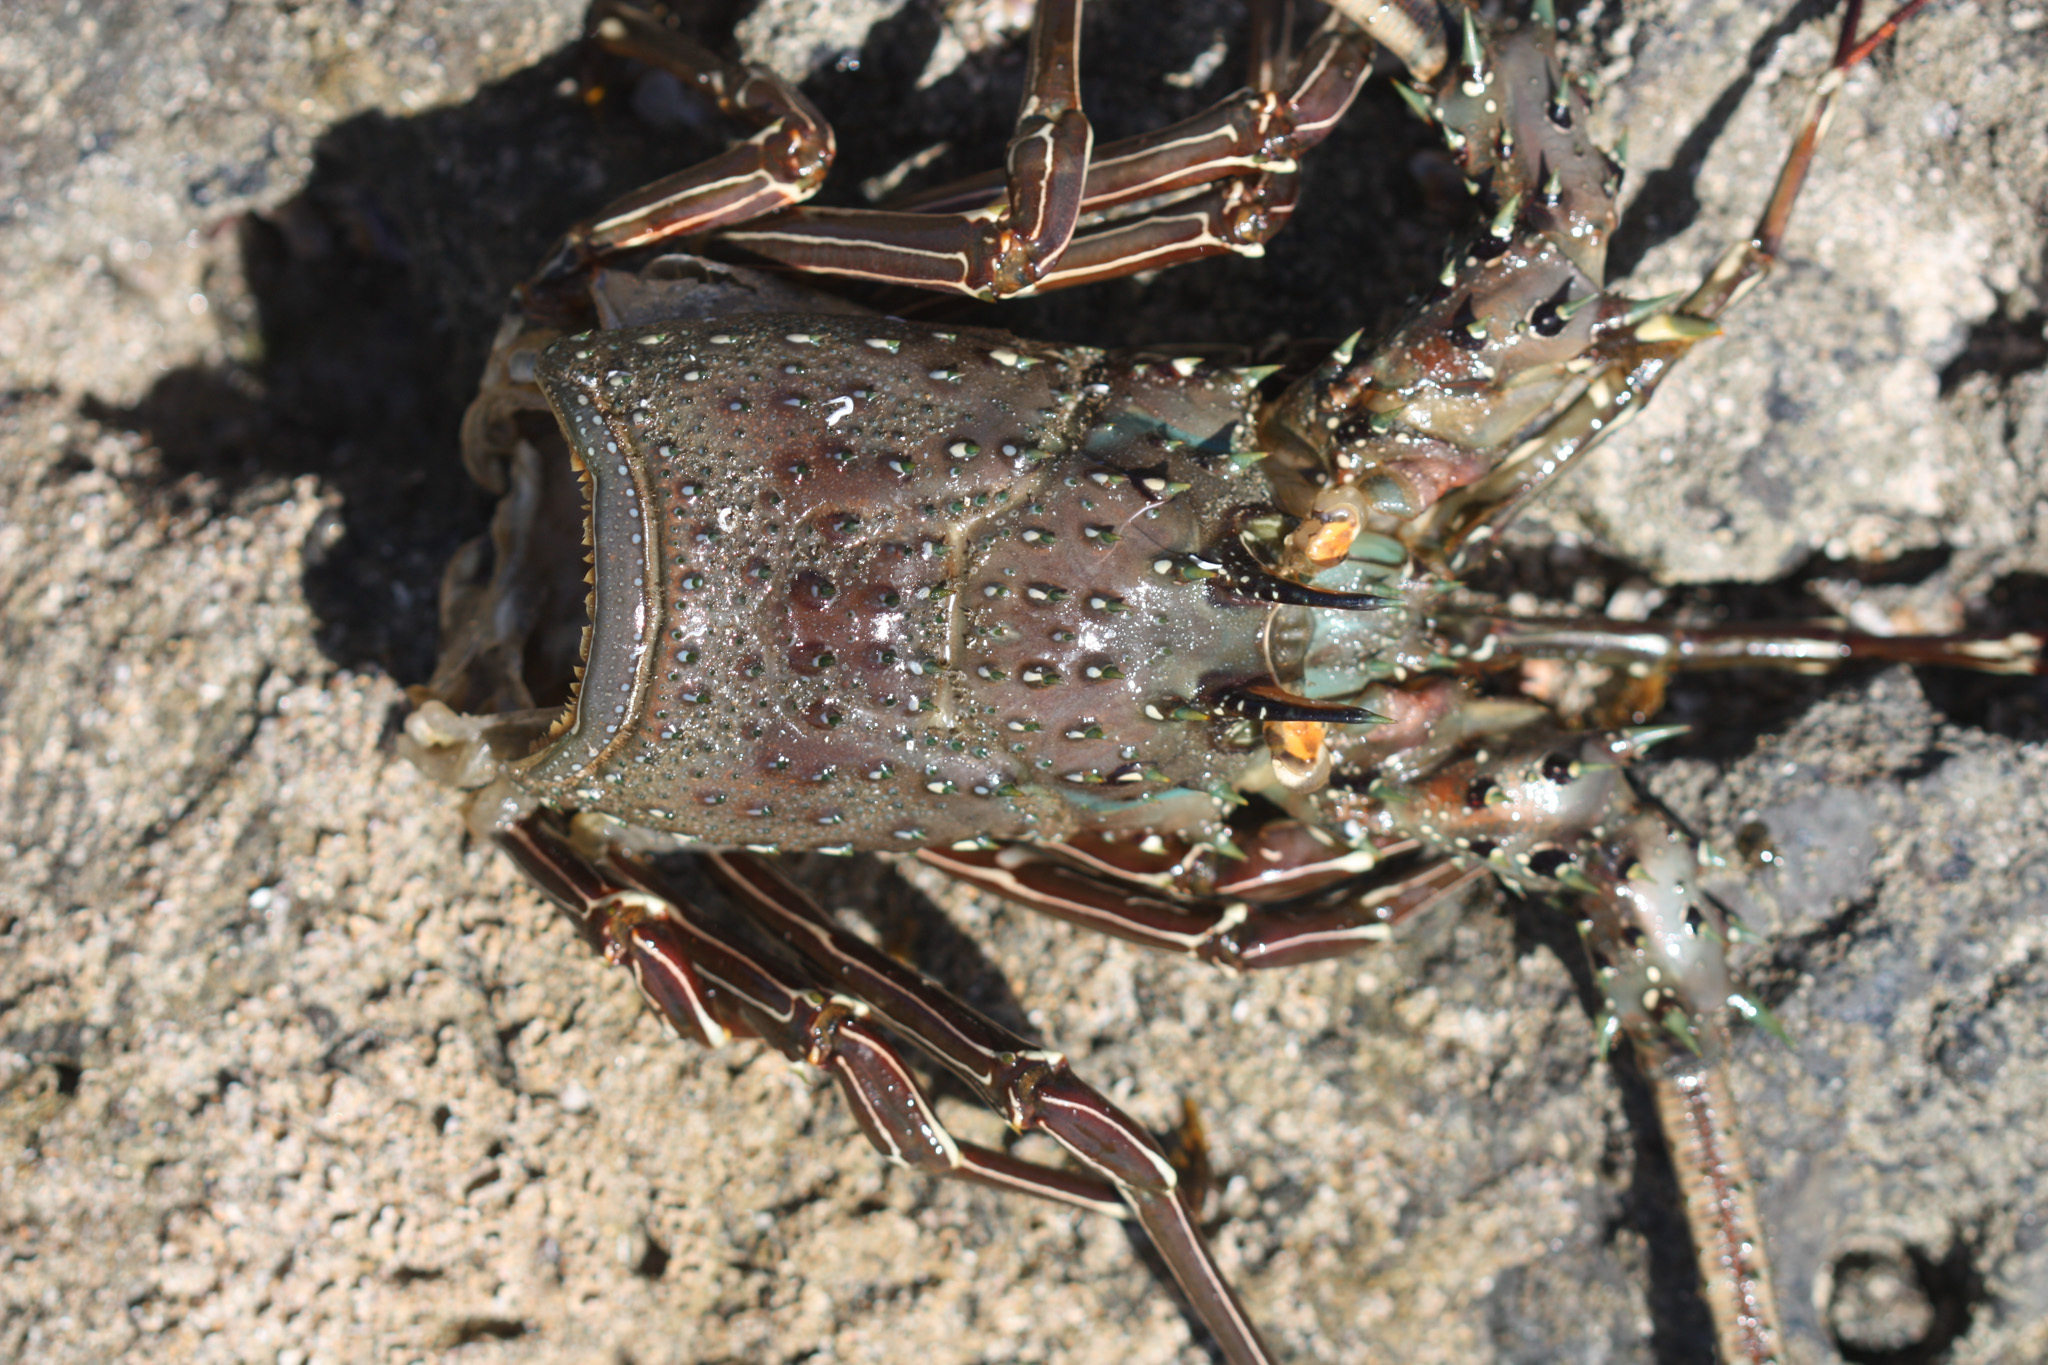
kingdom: Animalia
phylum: Arthropoda
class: Malacostraca
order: Decapoda
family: Palinuridae
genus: Panulirus
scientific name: Panulirus gracilis
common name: Green spiny lobster
